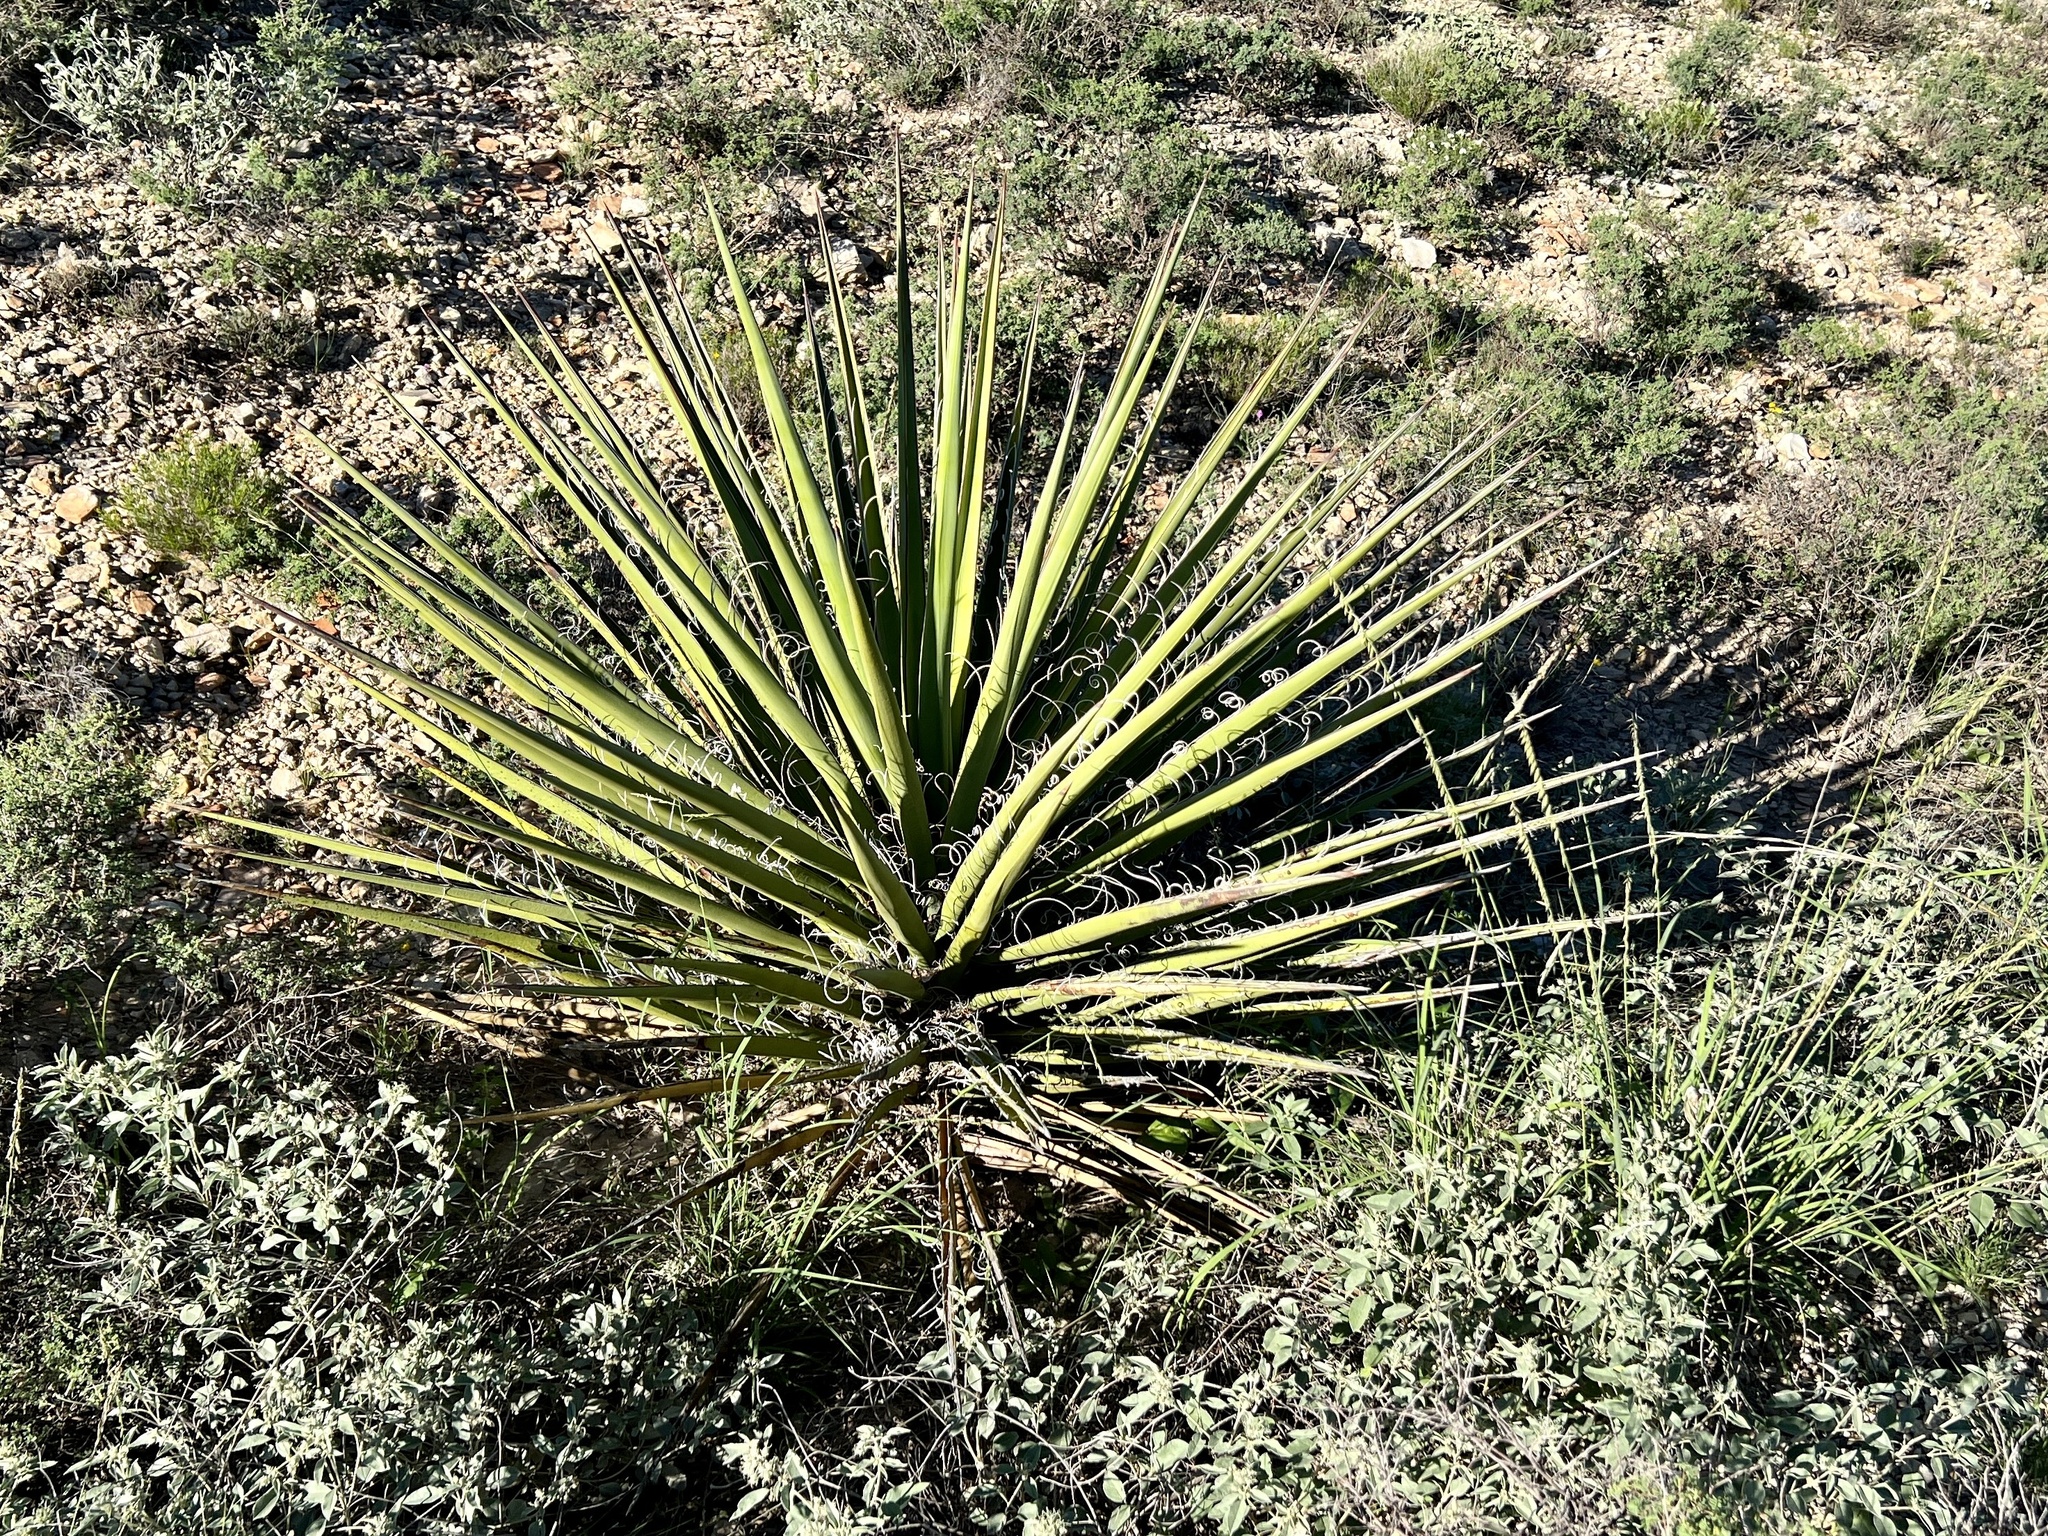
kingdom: Plantae
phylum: Tracheophyta
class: Liliopsida
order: Asparagales
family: Asparagaceae
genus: Yucca
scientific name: Yucca treculiana
